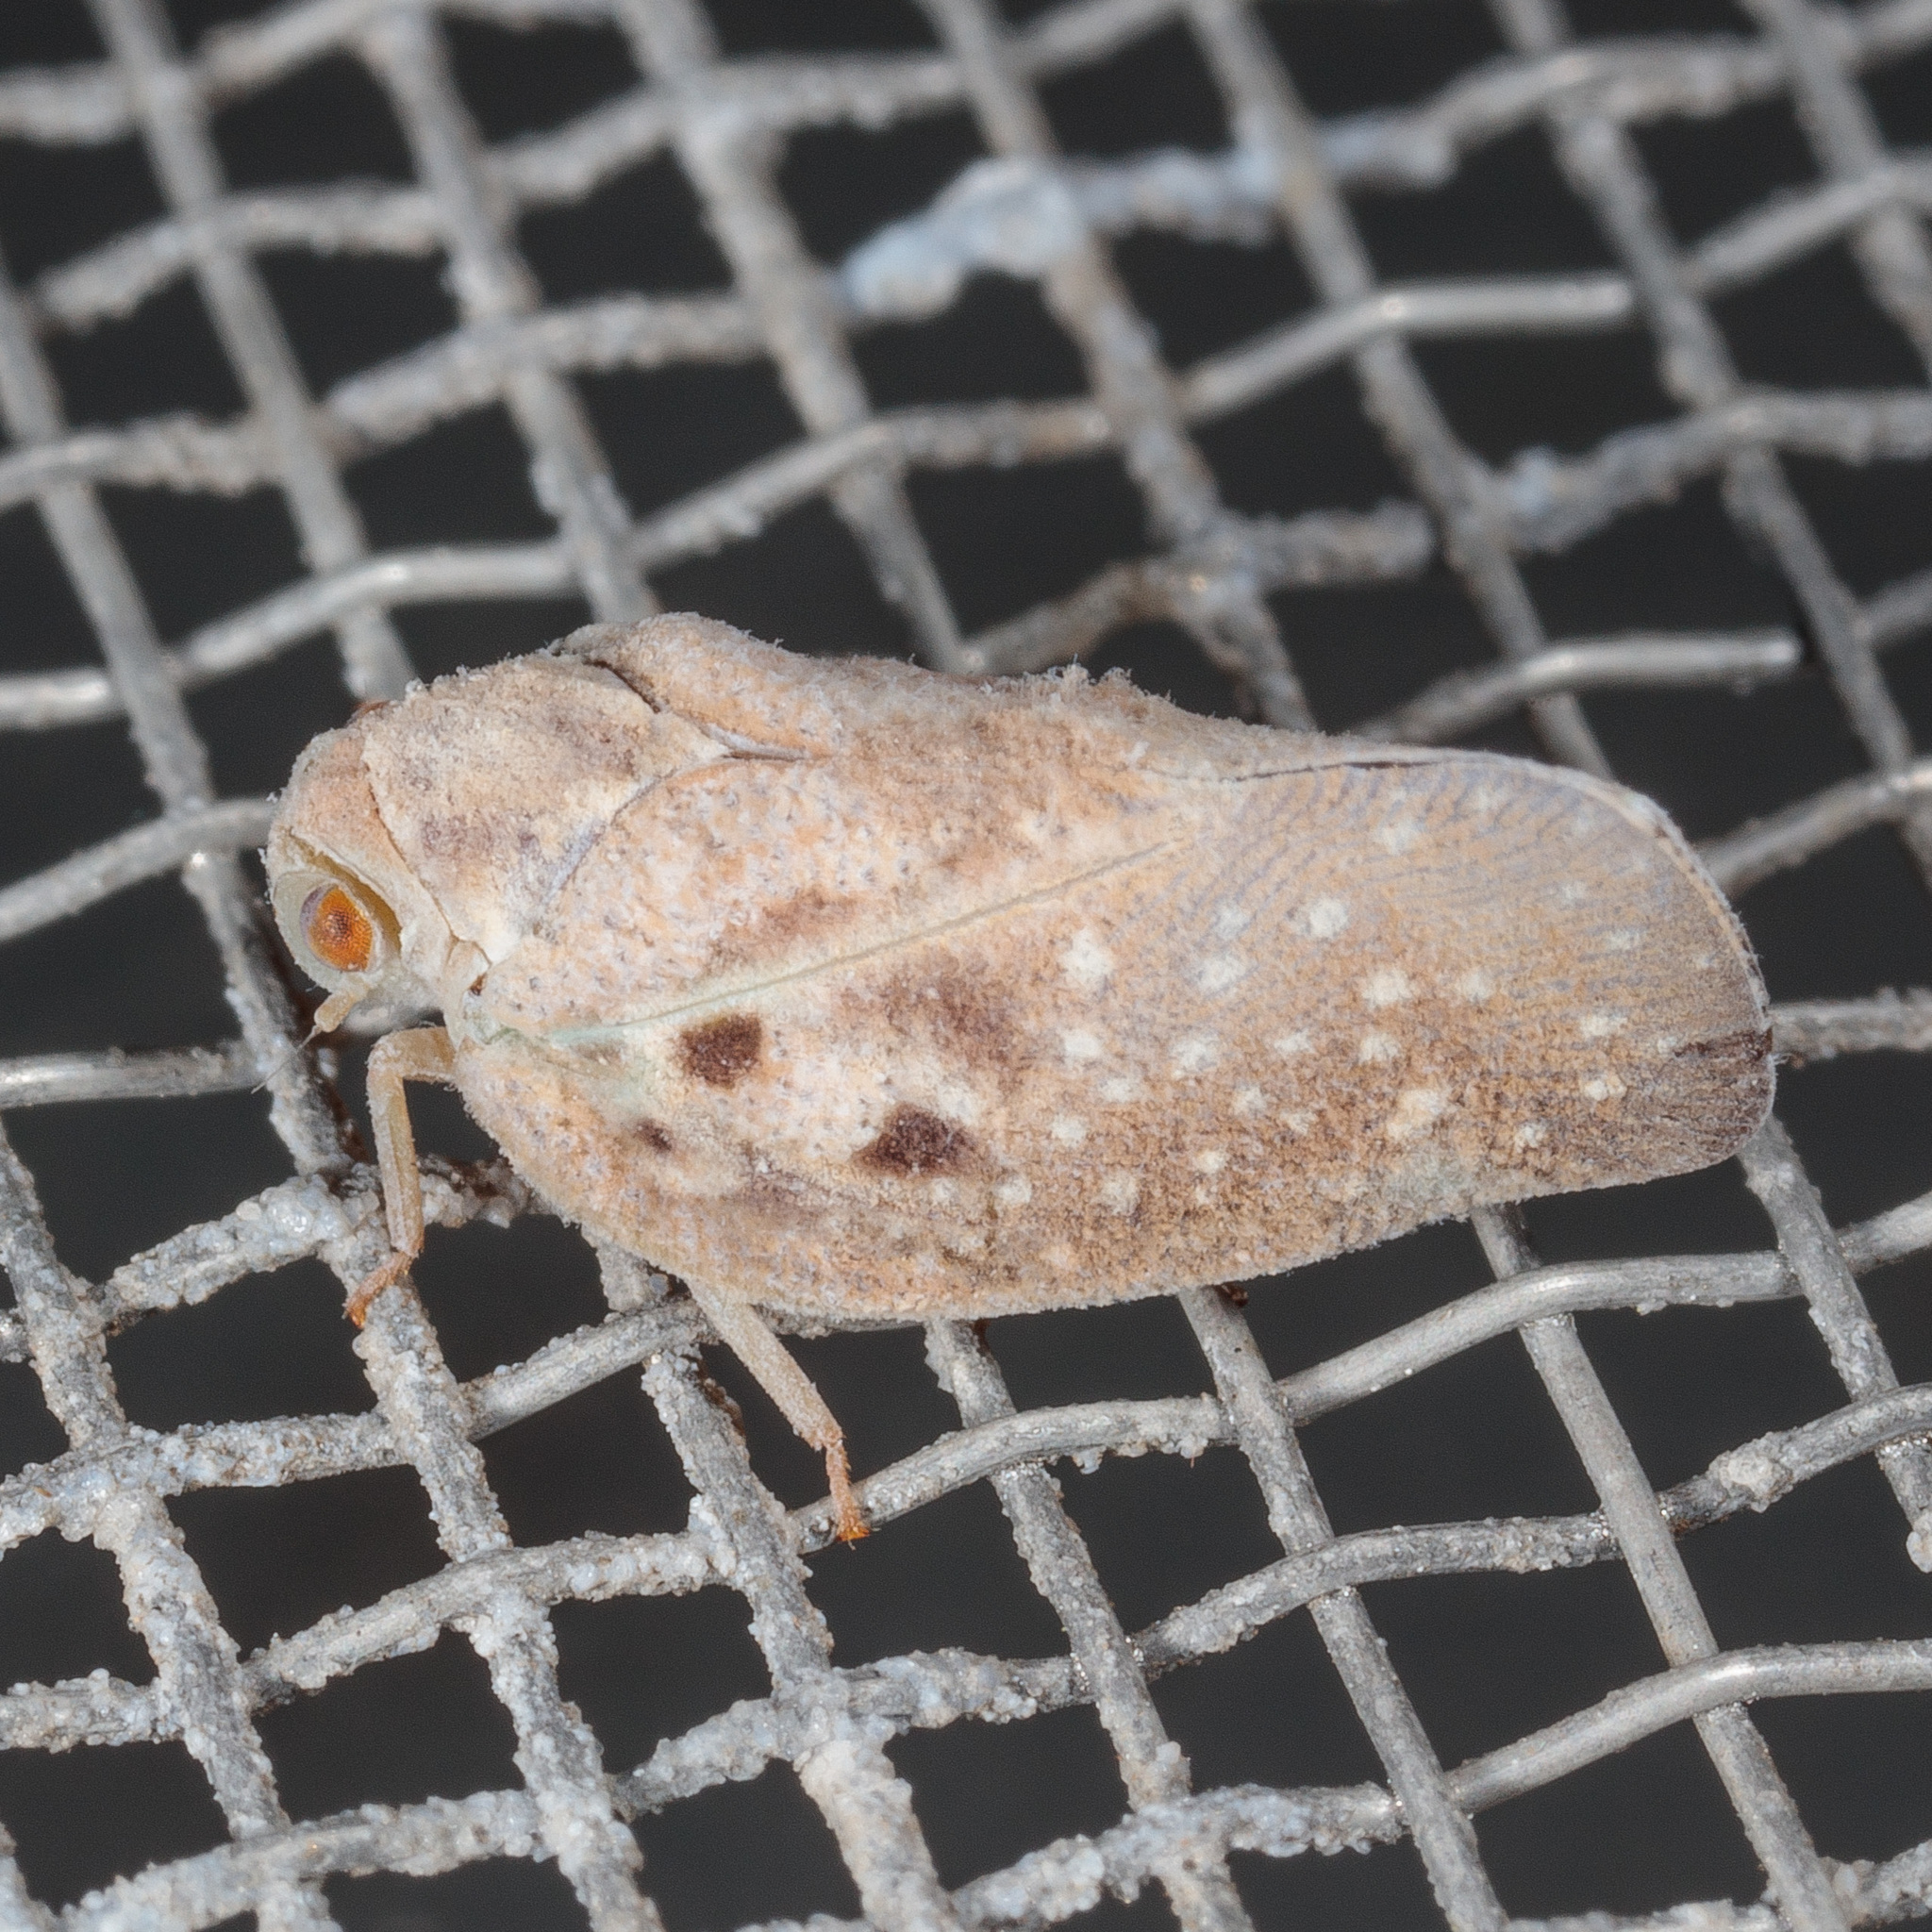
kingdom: Animalia
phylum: Arthropoda
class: Insecta
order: Hemiptera
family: Flatidae
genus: Metcalfa
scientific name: Metcalfa pruinosa
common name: Citrus flatid planthopper
